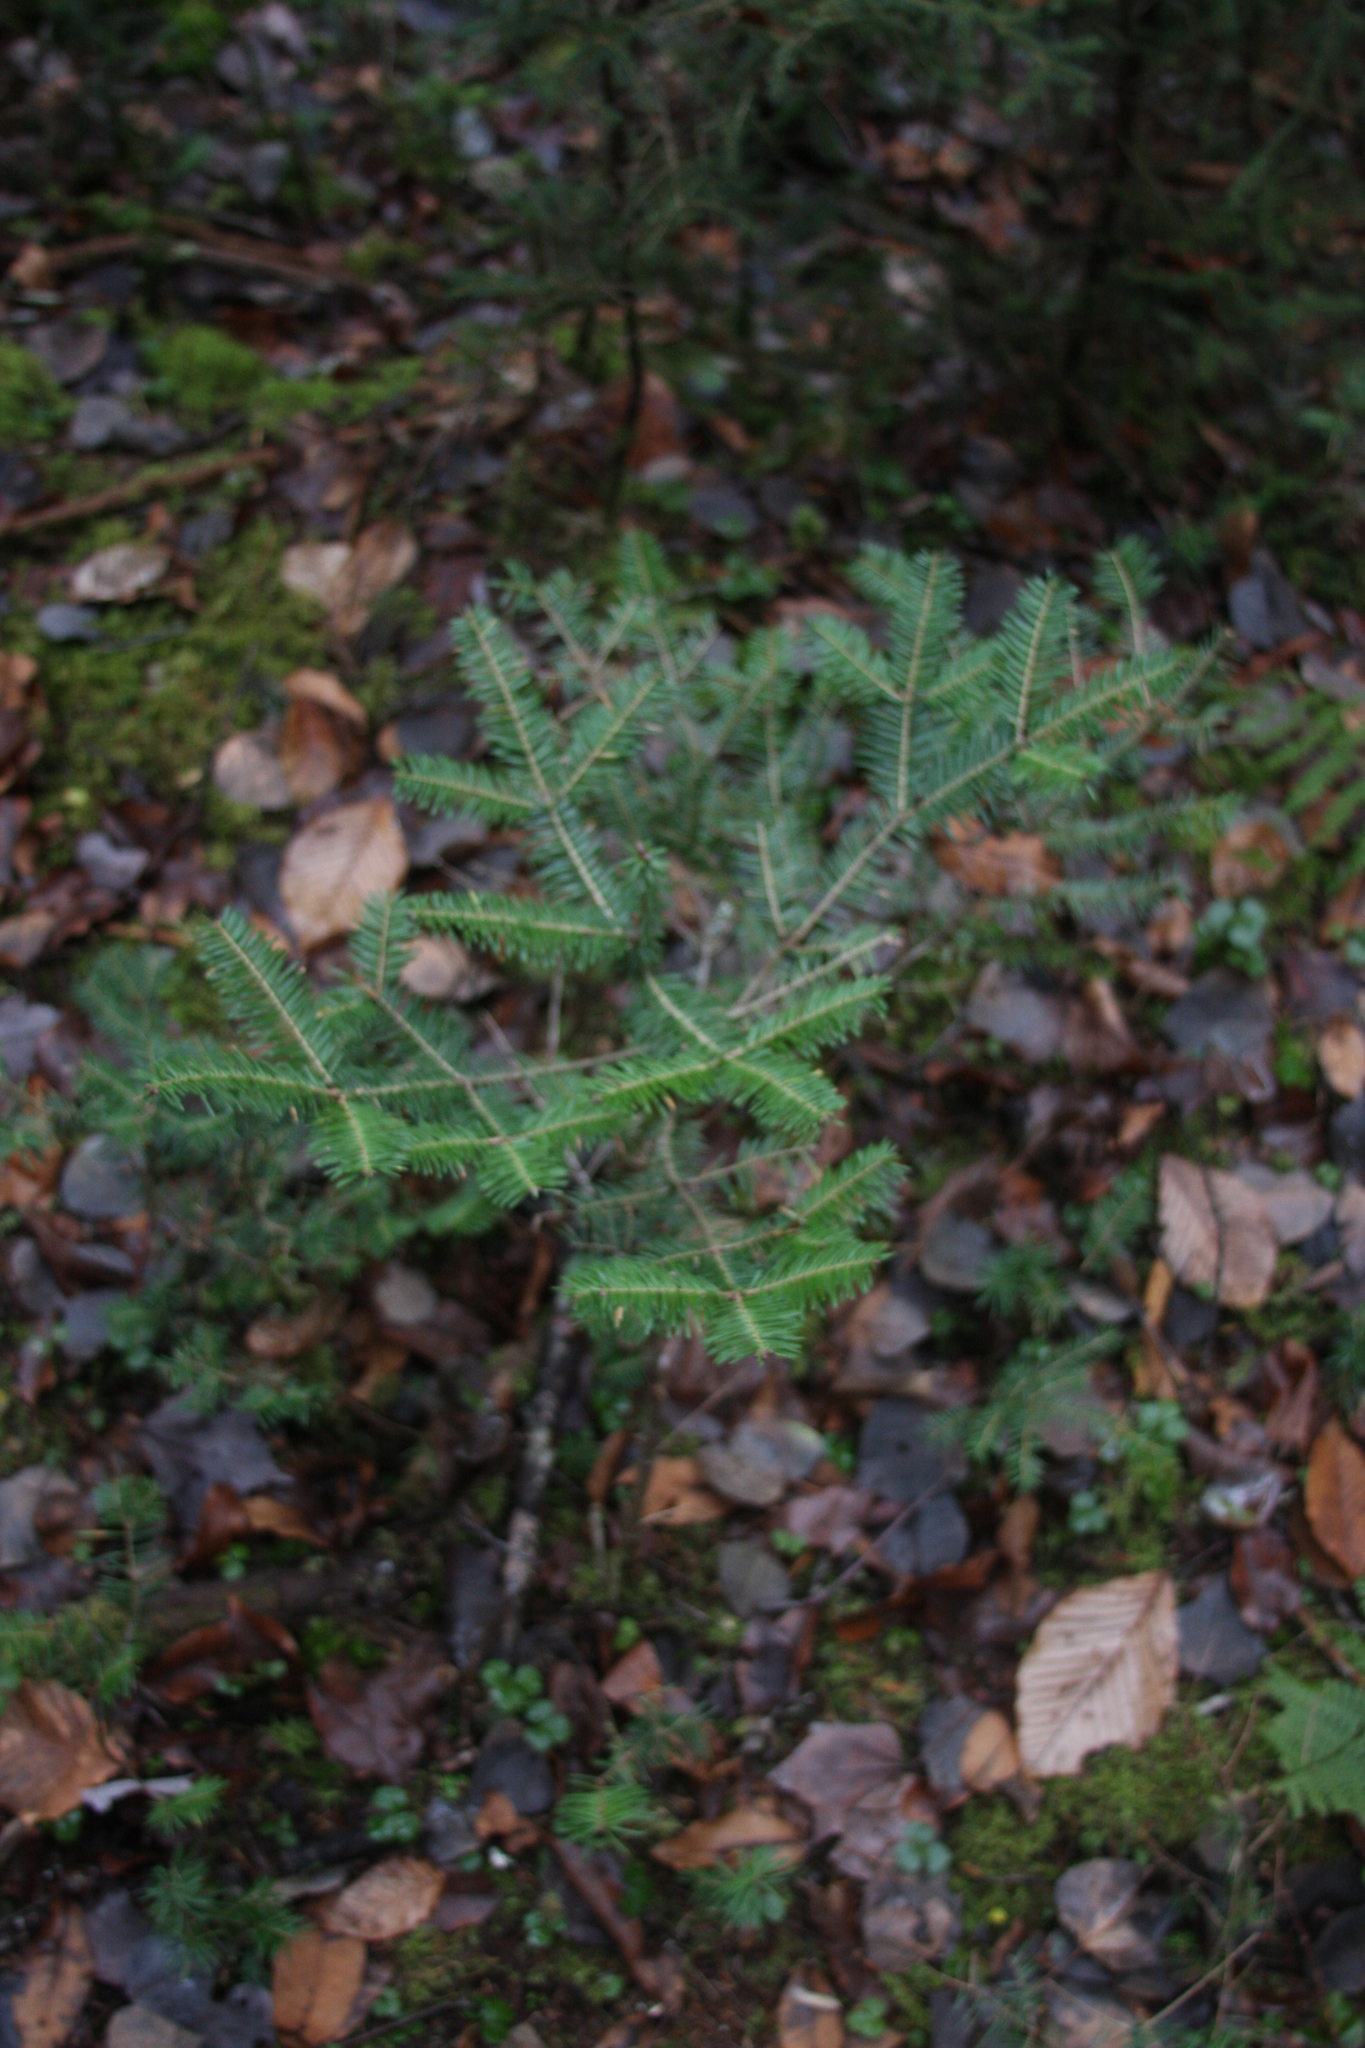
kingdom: Plantae
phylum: Tracheophyta
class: Pinopsida
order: Pinales
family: Pinaceae
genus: Abies
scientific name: Abies balsamea
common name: Balsam fir
